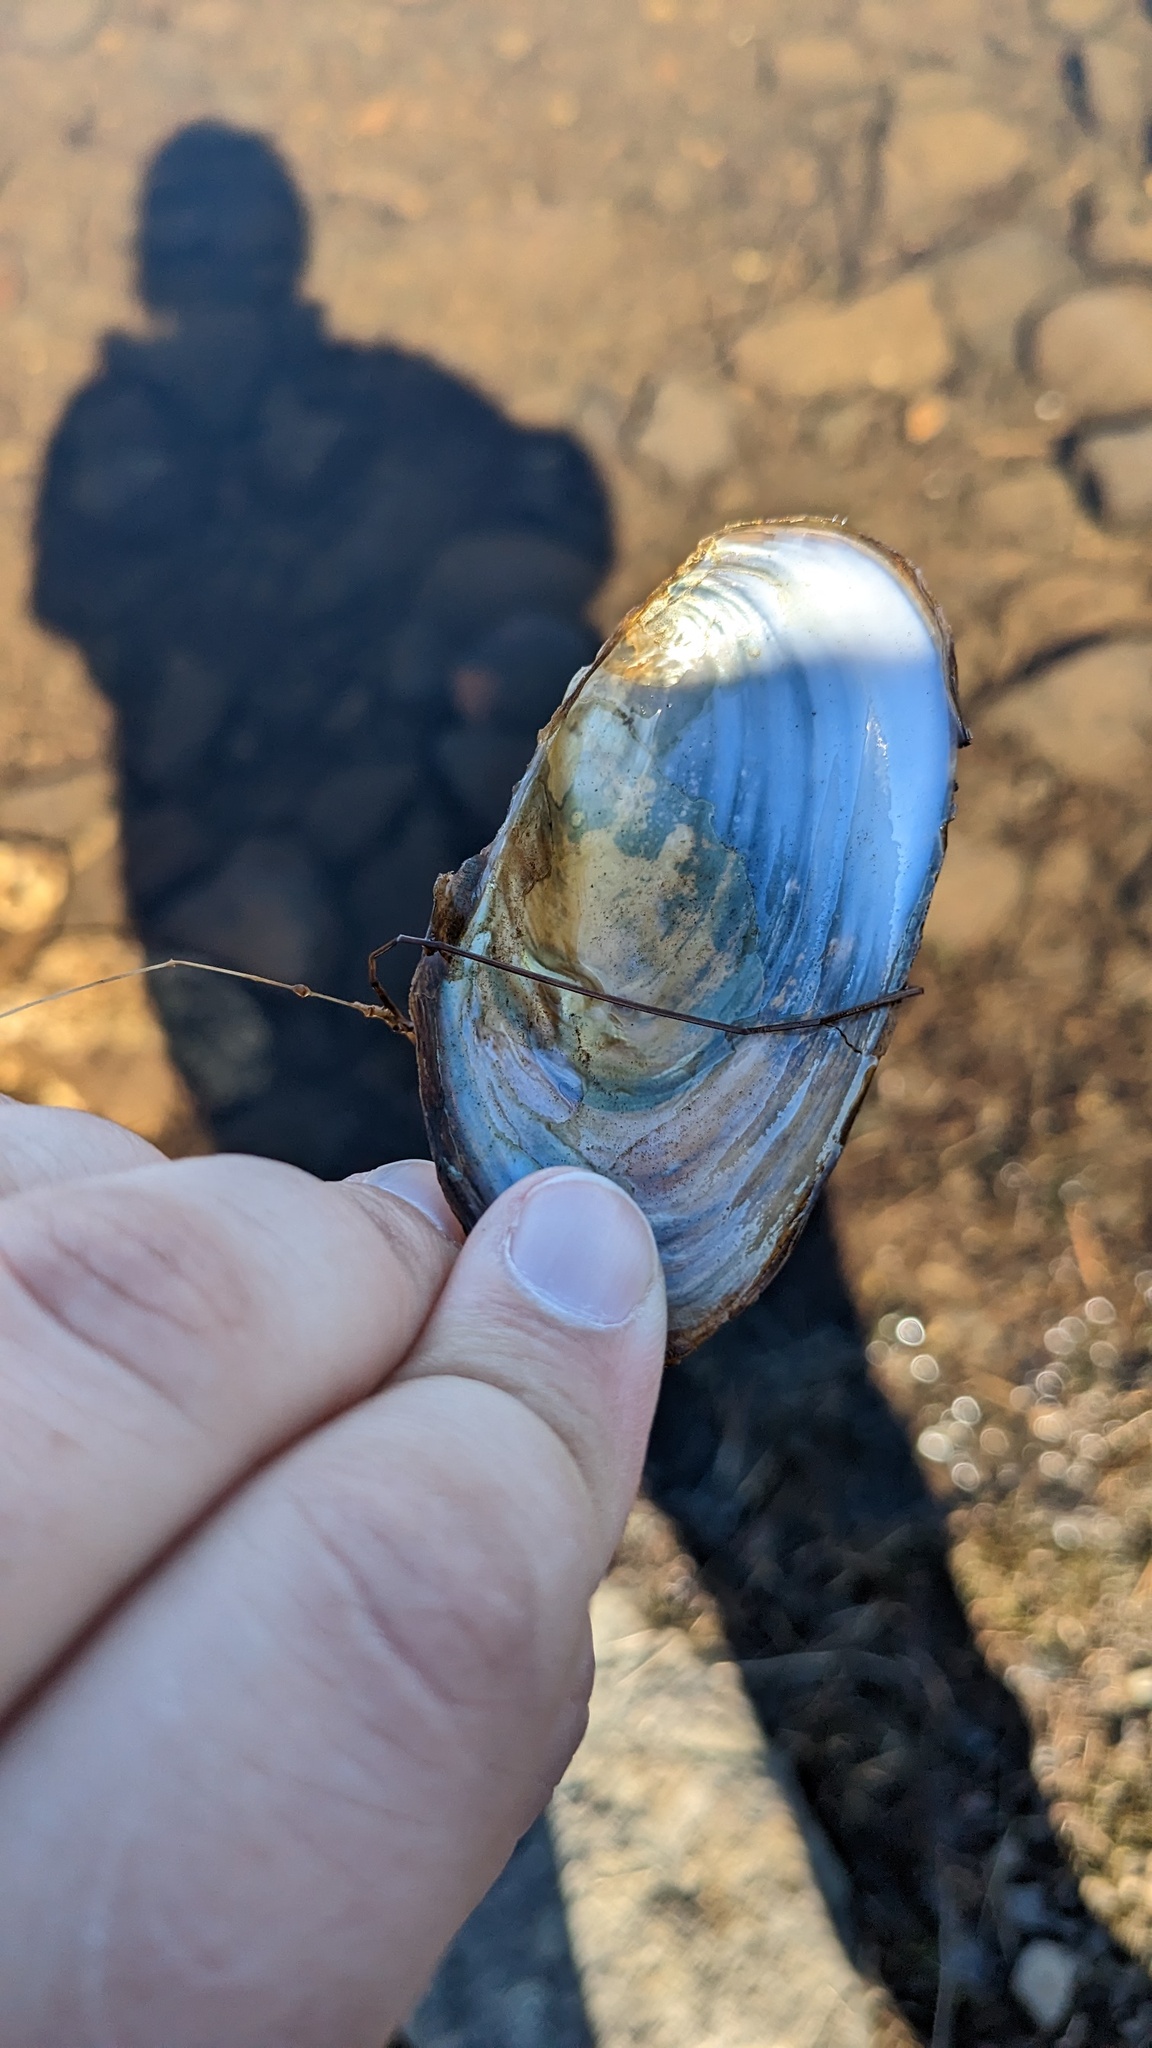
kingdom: Animalia
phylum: Mollusca
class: Bivalvia
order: Unionida
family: Unionidae
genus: Utterbackiana
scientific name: Utterbackiana implicata
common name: Alewife floater
